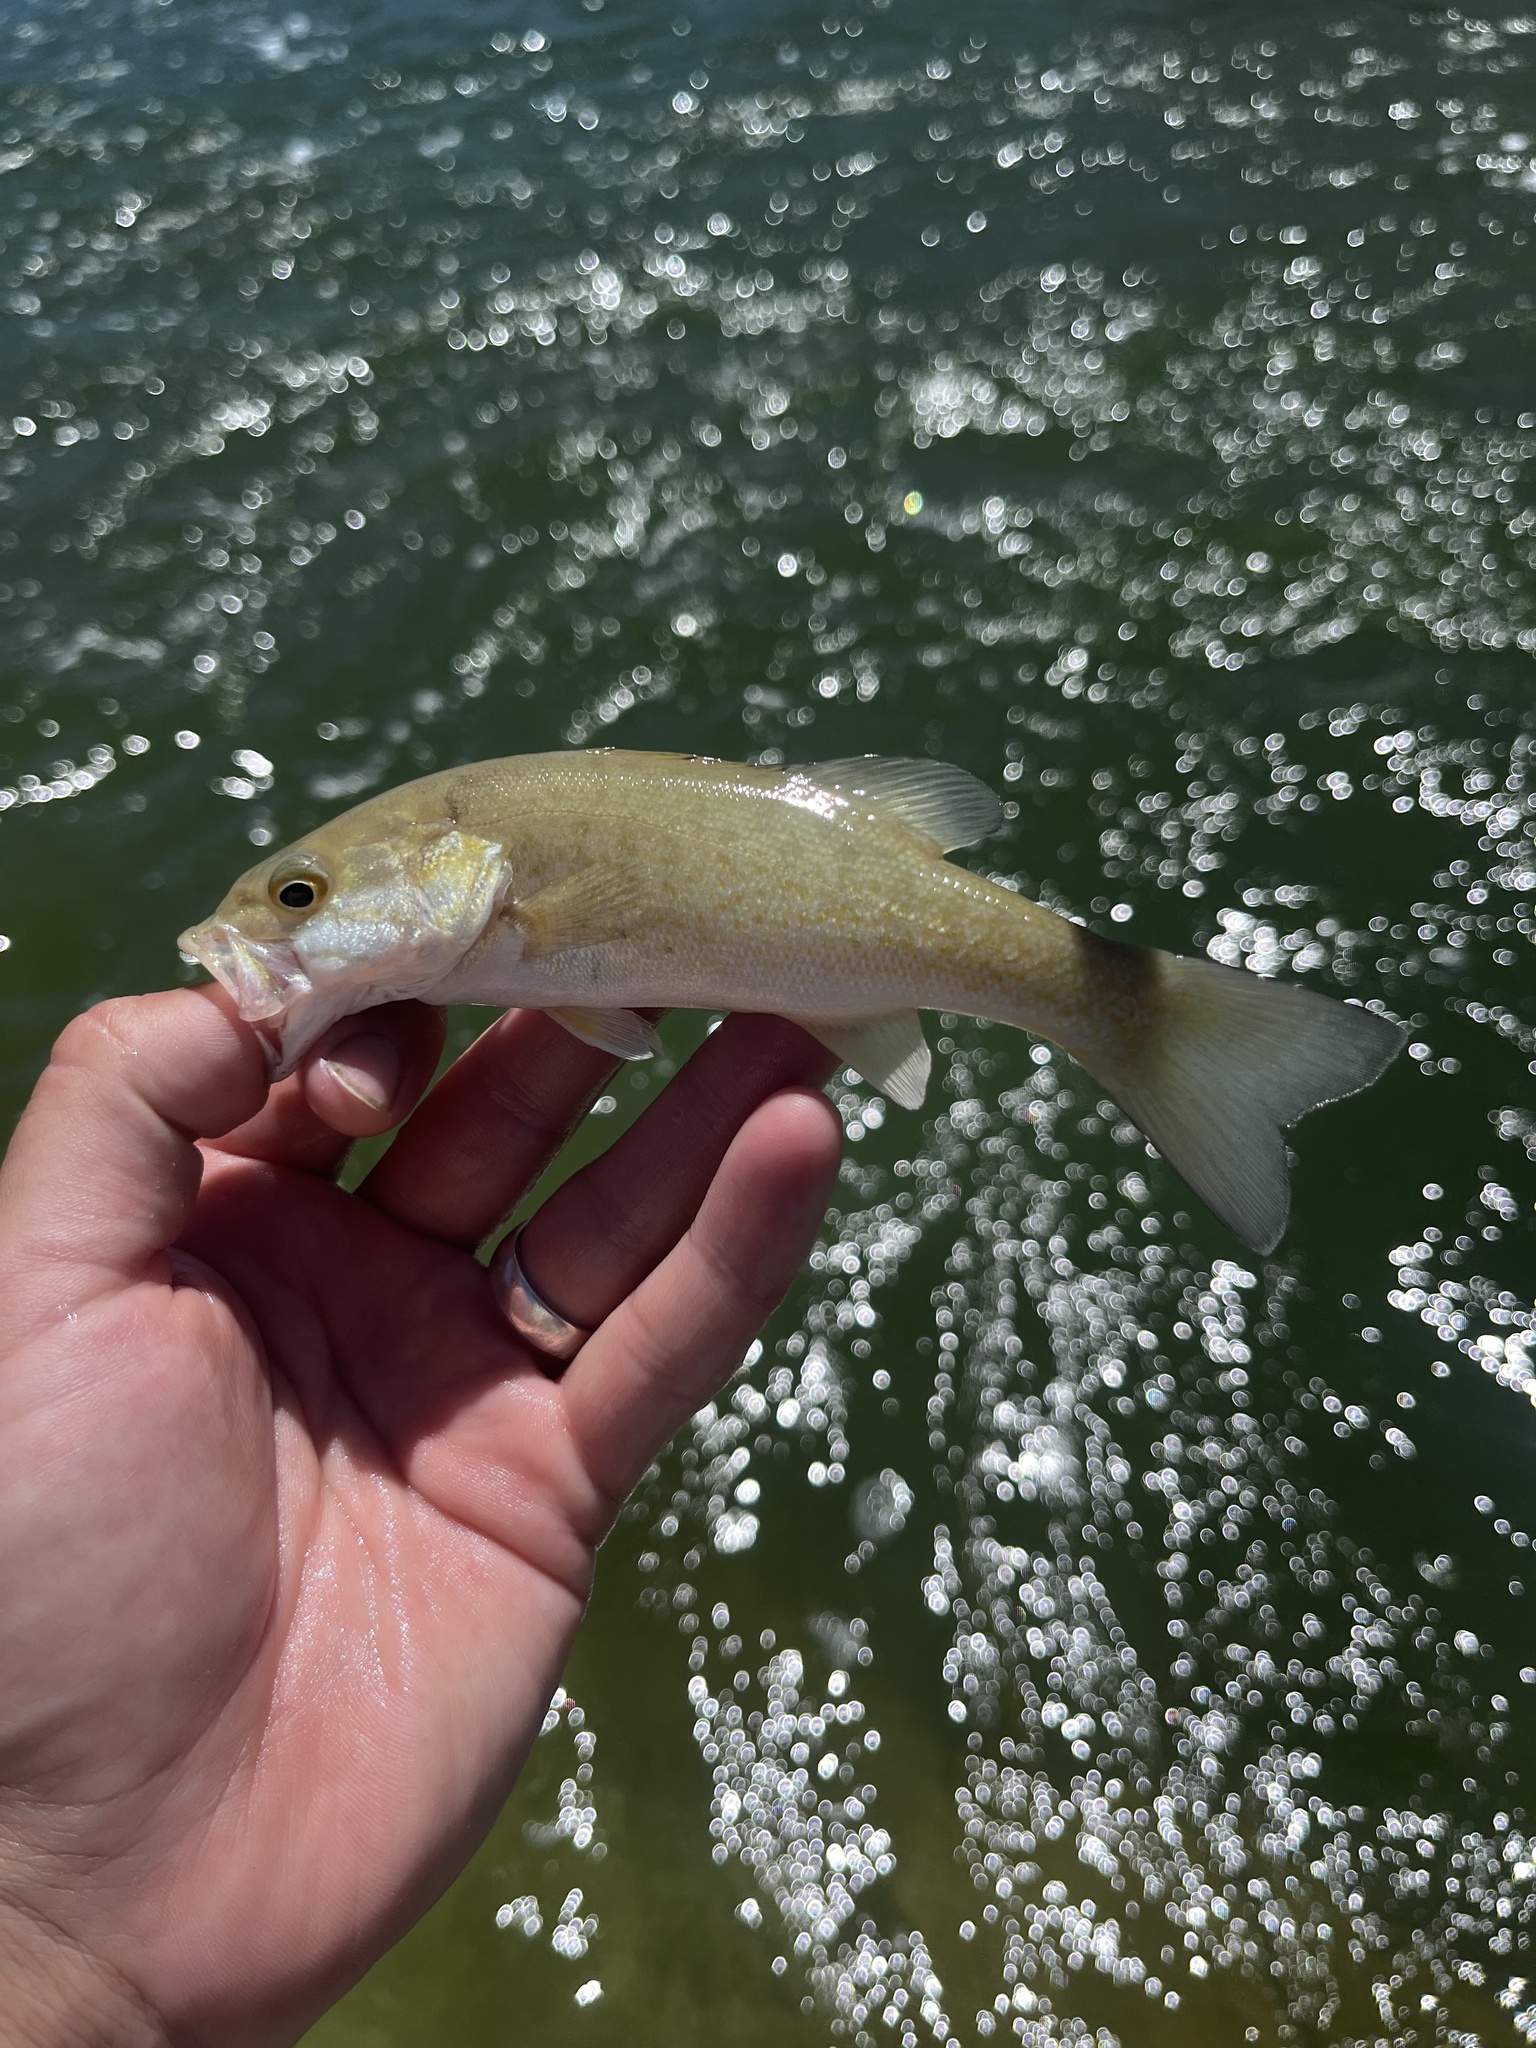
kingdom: Animalia
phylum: Chordata
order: Perciformes
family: Centrarchidae
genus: Micropterus
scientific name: Micropterus dolomieu
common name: Smallmouth bass
